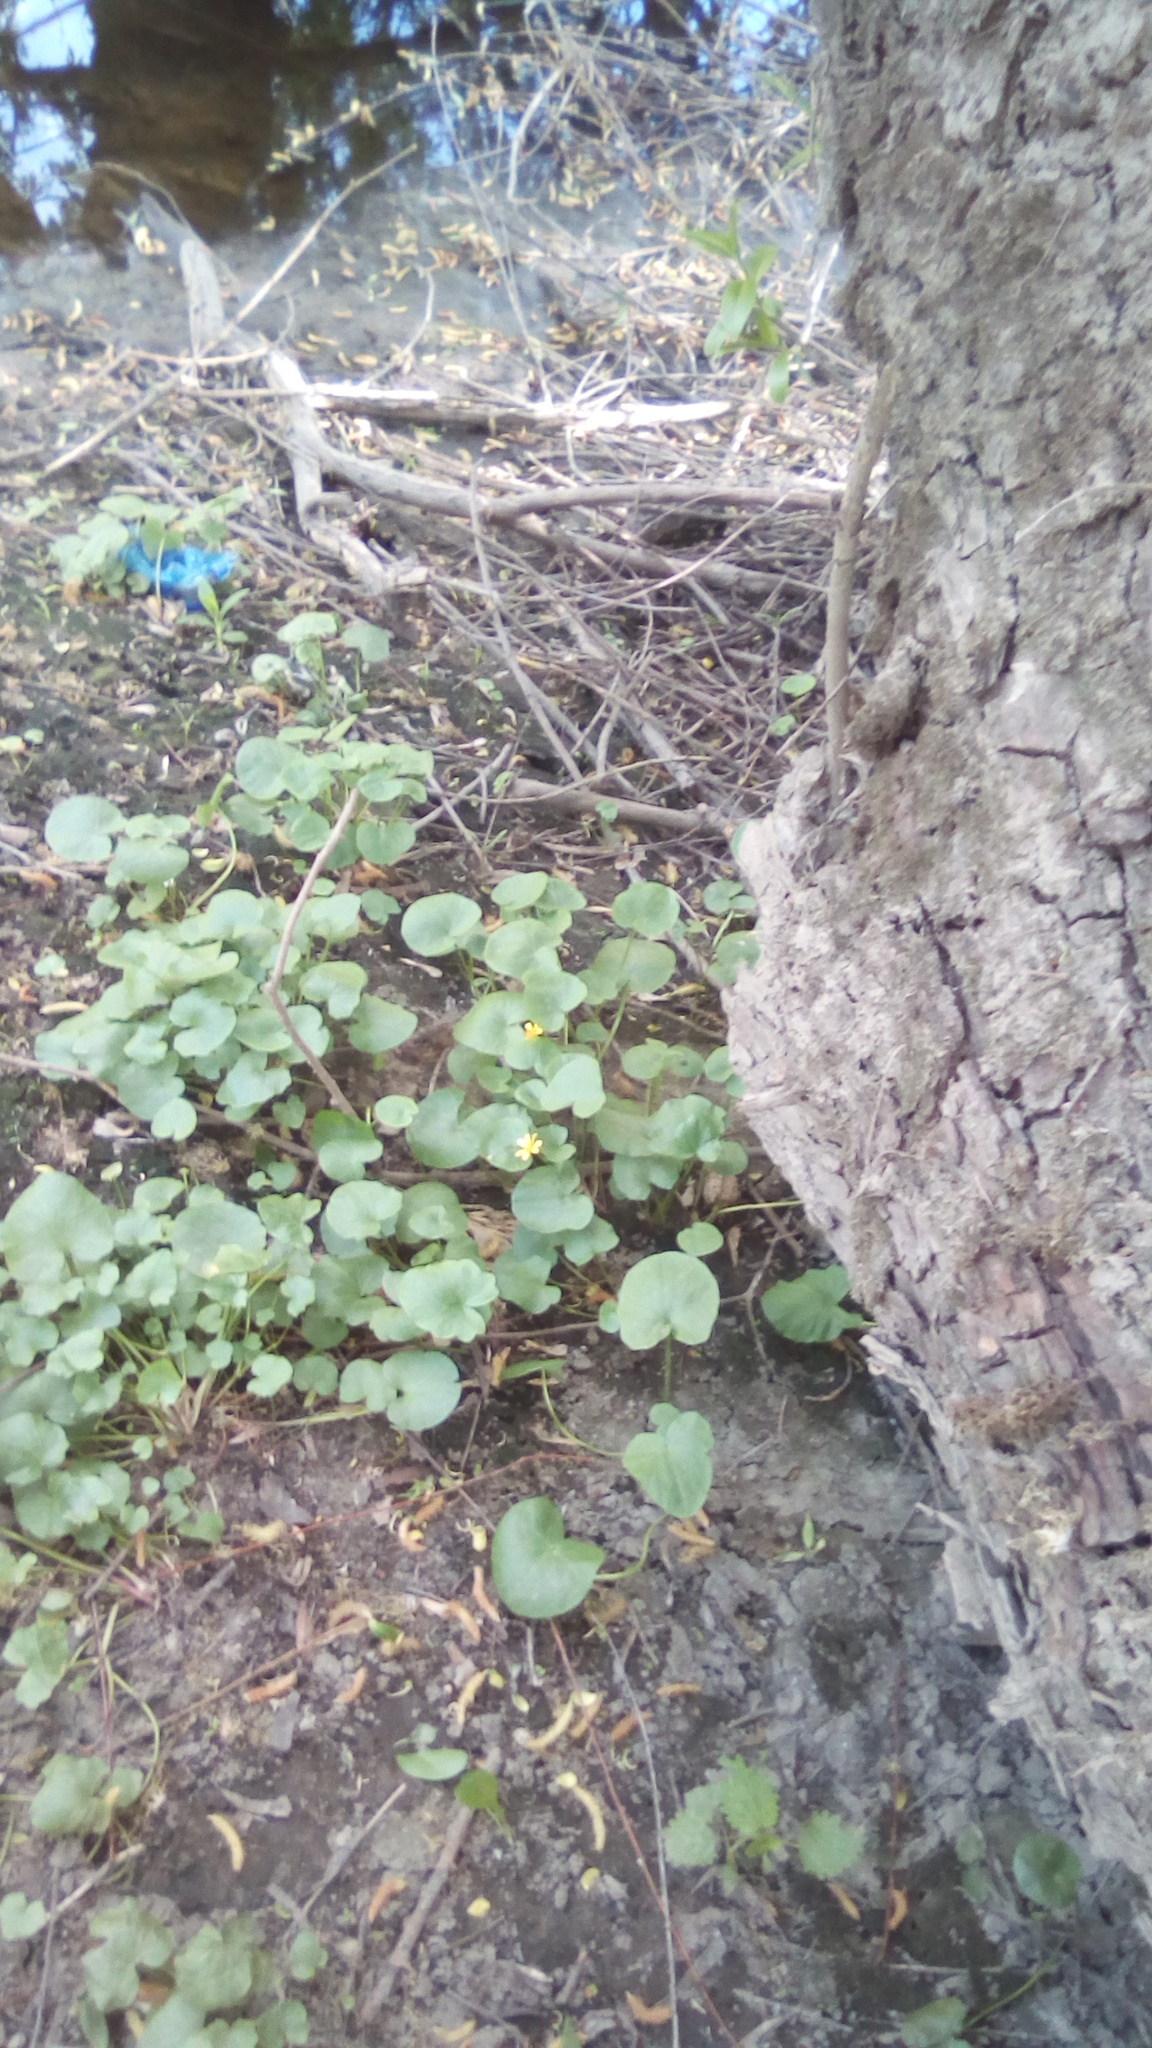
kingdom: Plantae
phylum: Tracheophyta
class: Magnoliopsida
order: Ranunculales
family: Ranunculaceae
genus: Ficaria
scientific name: Ficaria verna
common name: Lesser celandine
